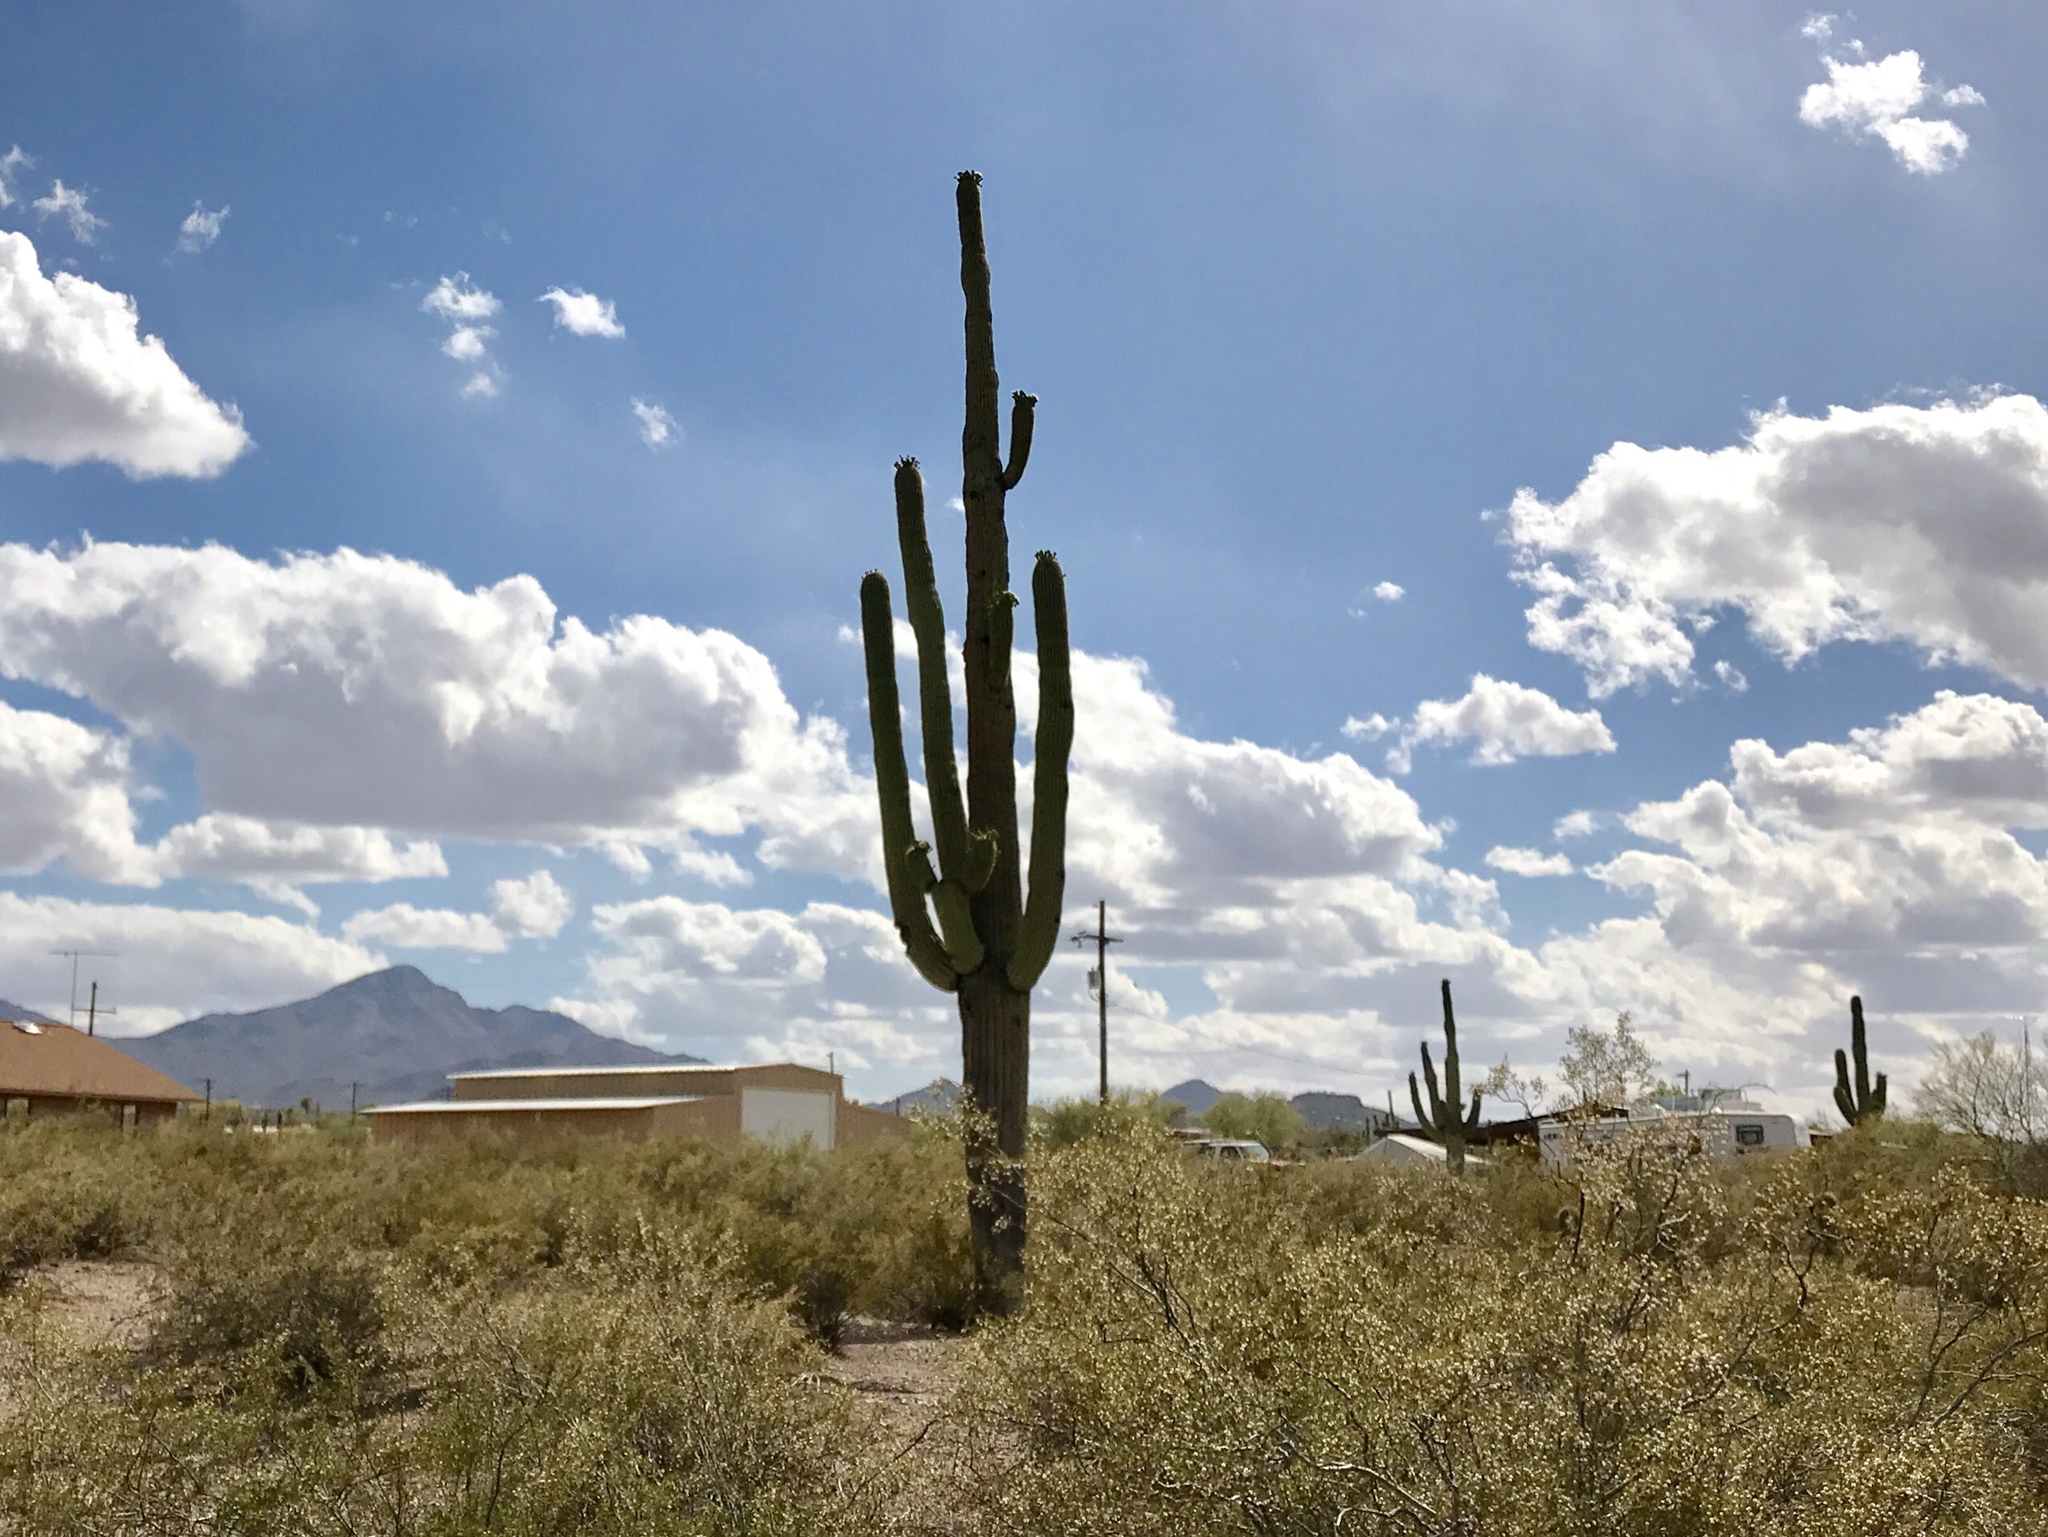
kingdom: Plantae
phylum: Tracheophyta
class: Magnoliopsida
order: Caryophyllales
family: Cactaceae
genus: Carnegiea
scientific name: Carnegiea gigantea
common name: Saguaro
